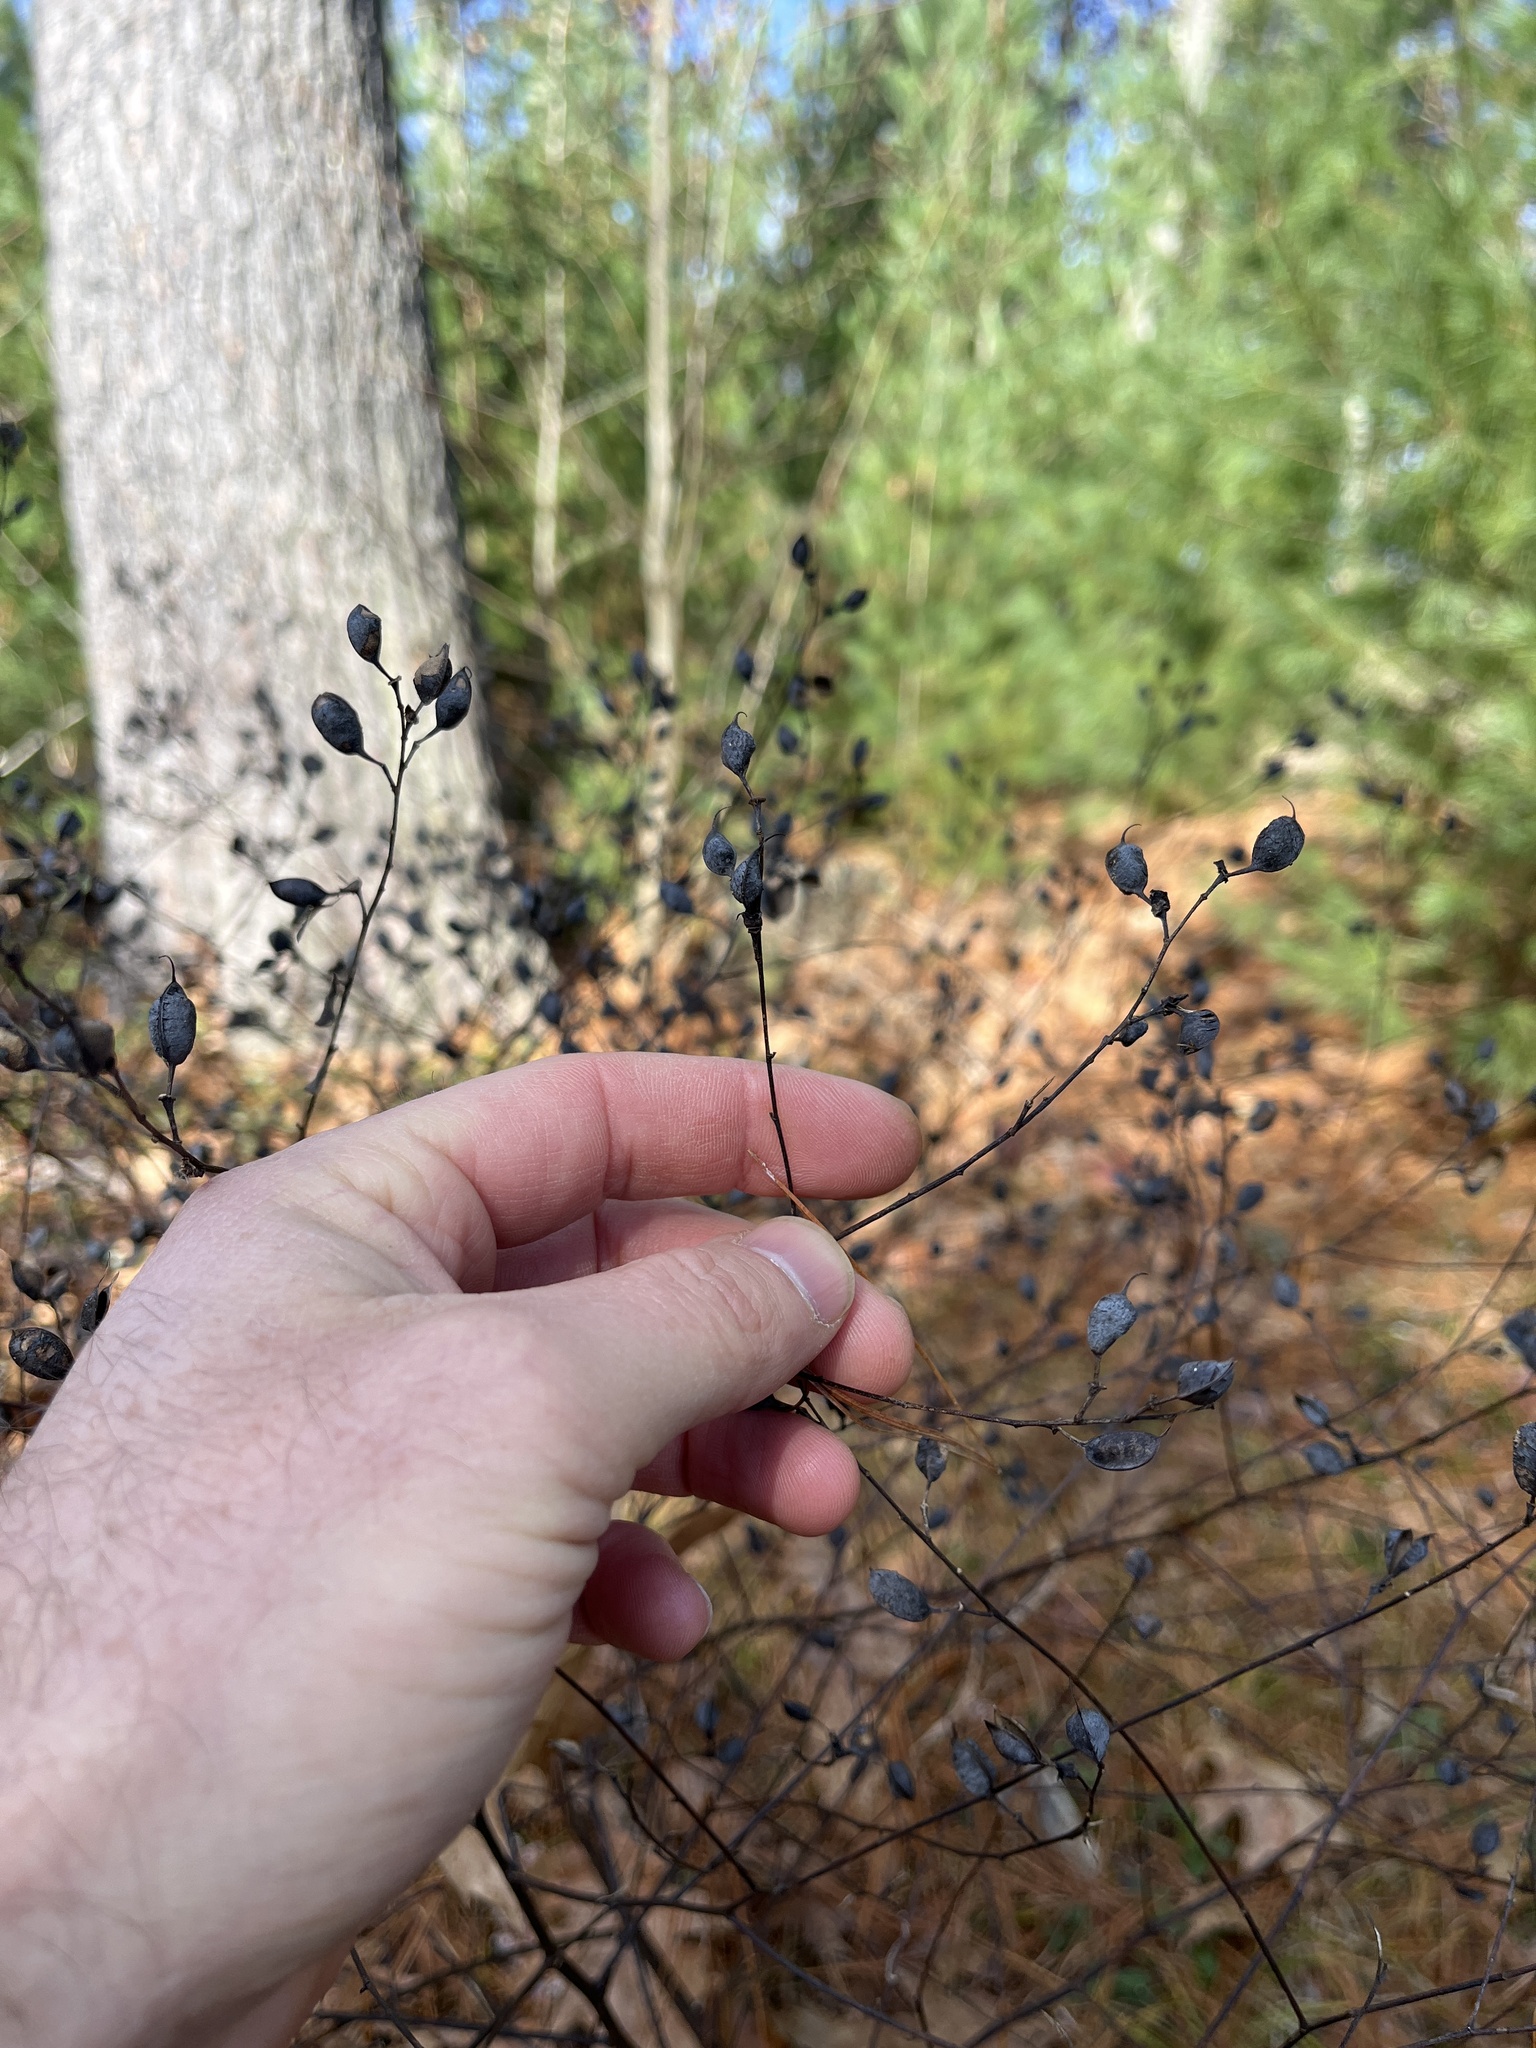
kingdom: Plantae
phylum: Tracheophyta
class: Magnoliopsida
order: Fabales
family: Fabaceae
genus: Baptisia
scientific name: Baptisia tinctoria
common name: Wild indigo
